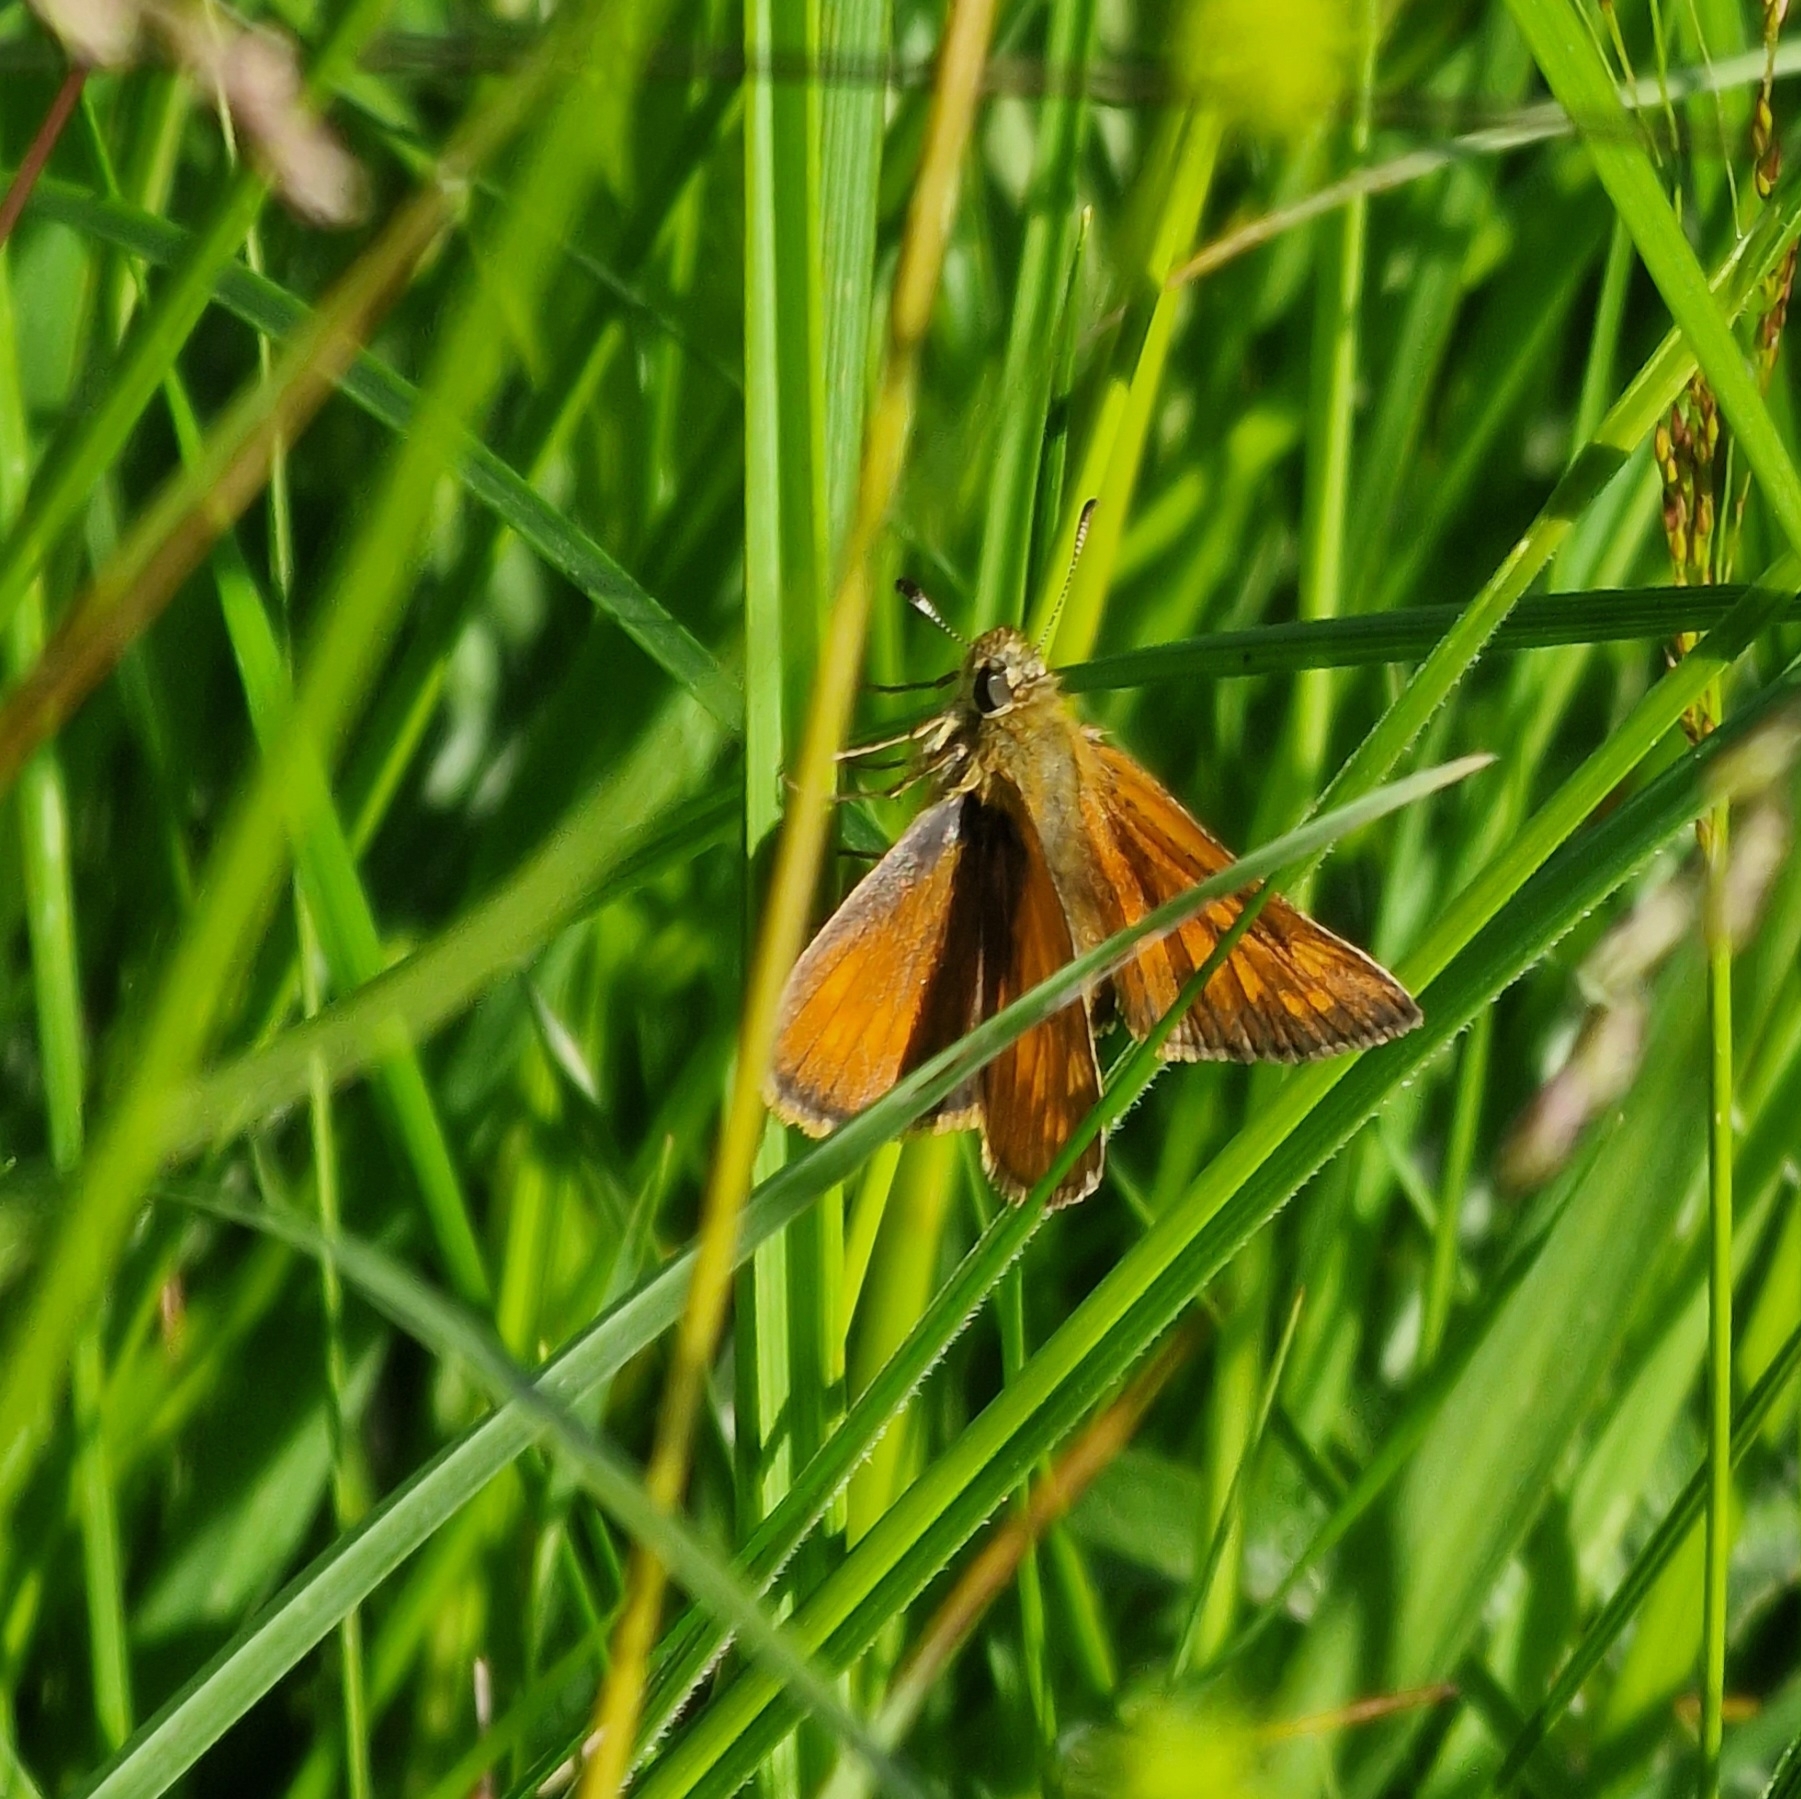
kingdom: Animalia
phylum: Arthropoda
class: Insecta
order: Lepidoptera
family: Hesperiidae
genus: Ochlodes
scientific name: Ochlodes venata
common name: Large skipper
